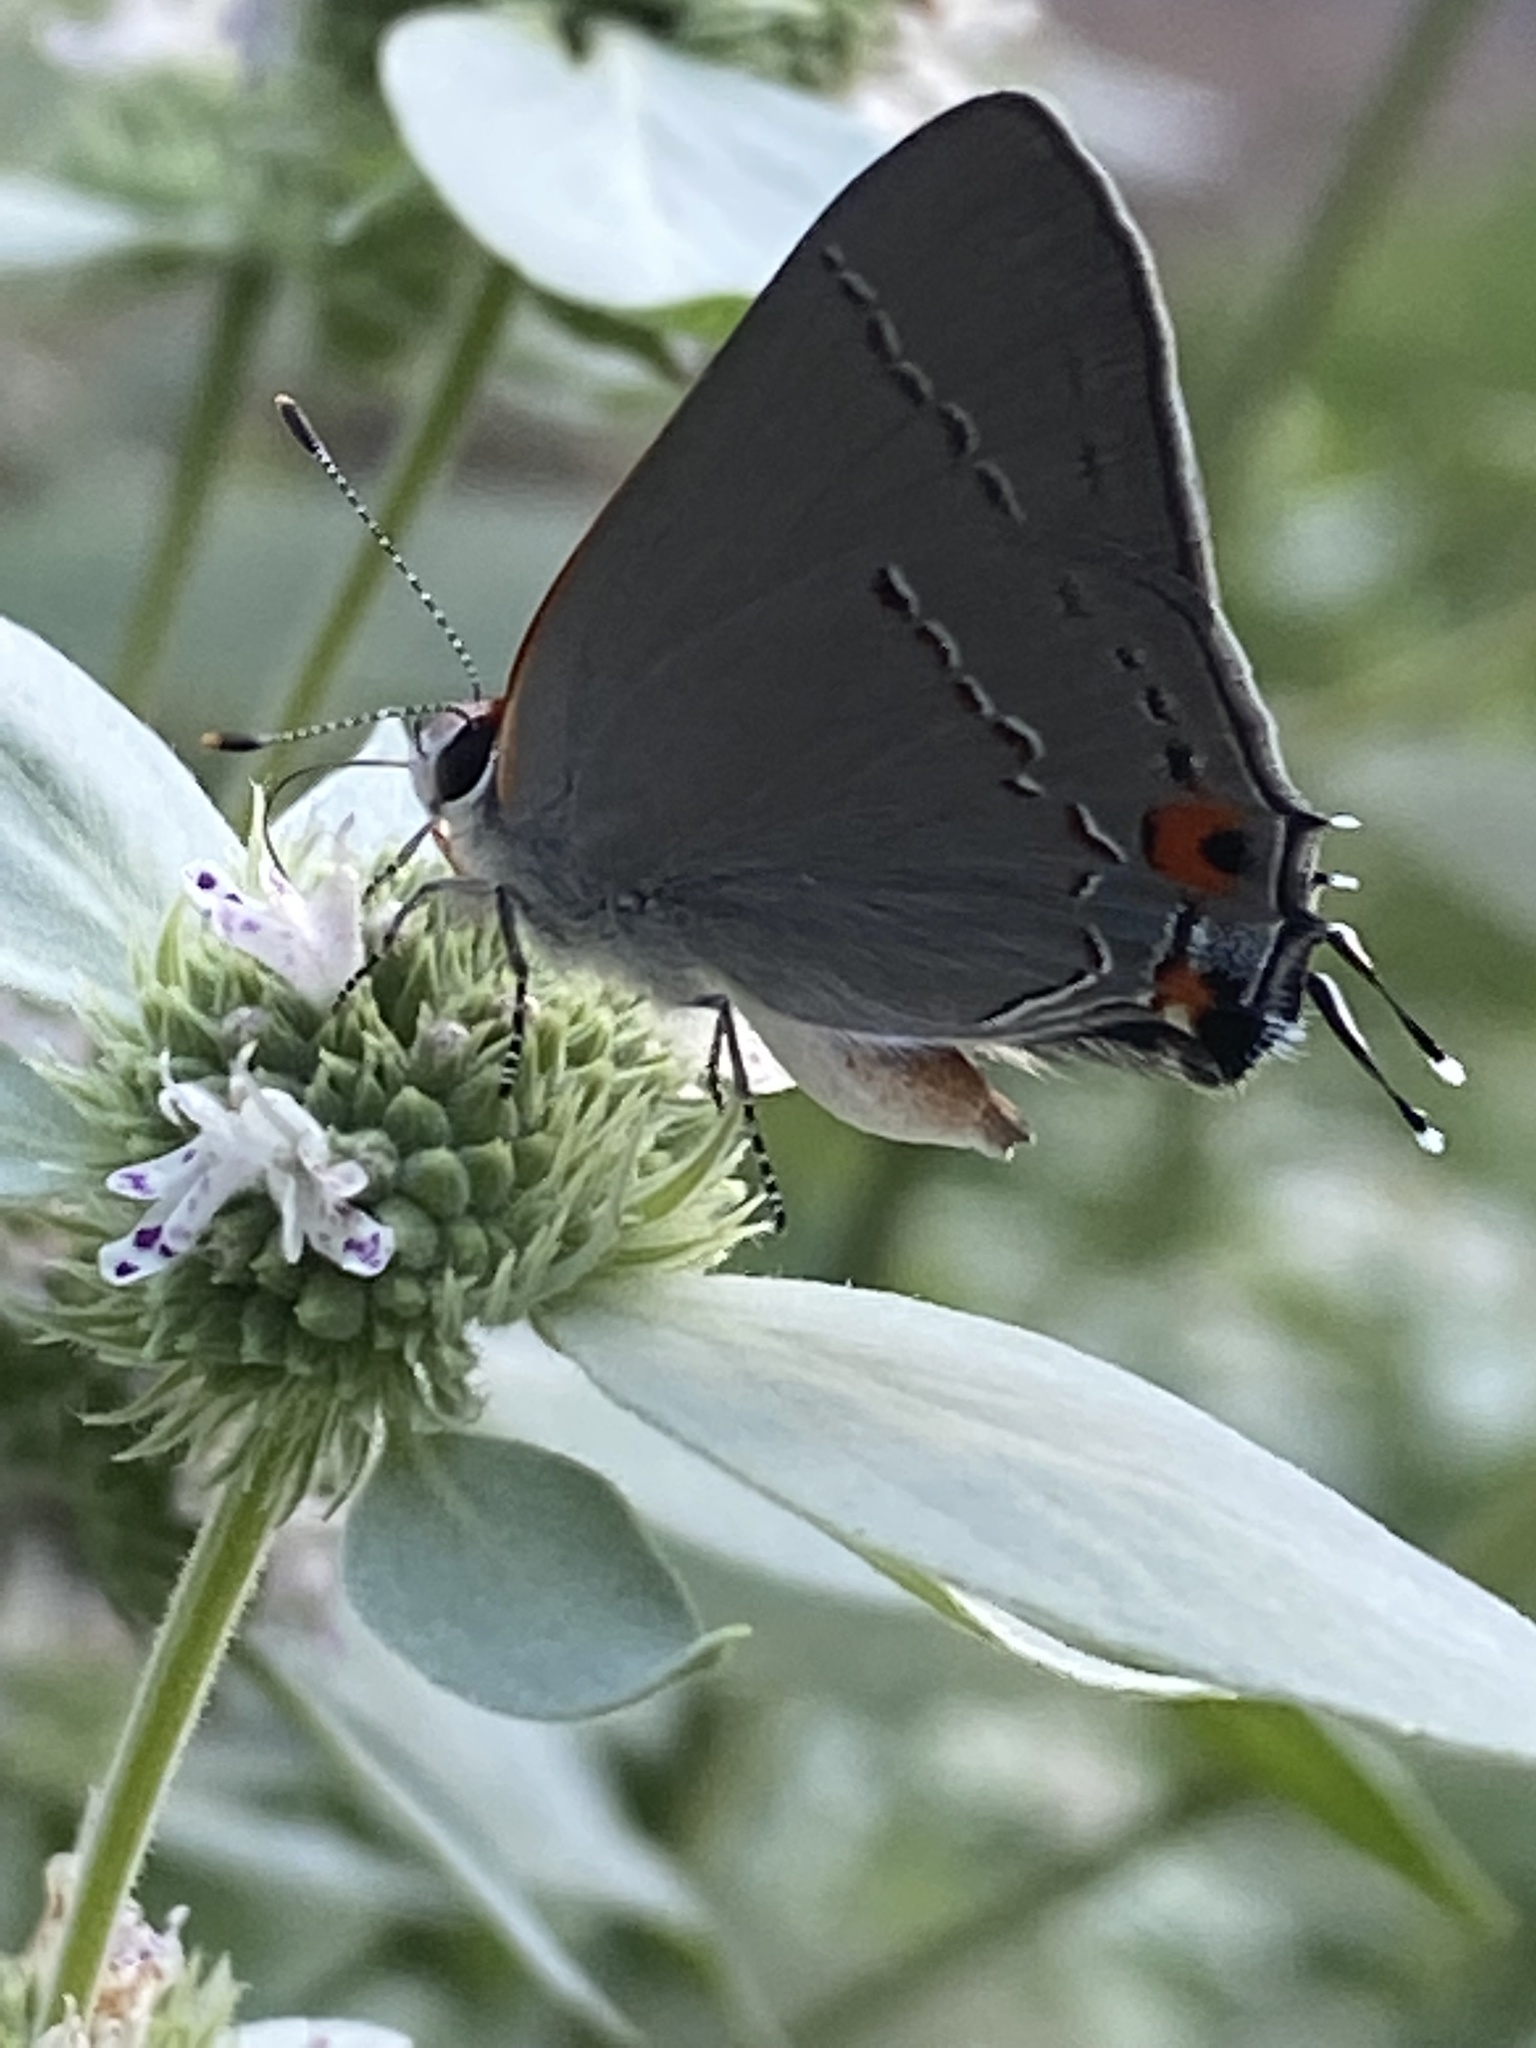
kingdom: Animalia
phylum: Arthropoda
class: Insecta
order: Lepidoptera
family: Lycaenidae
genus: Strymon
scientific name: Strymon melinus
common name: Gray hairstreak
